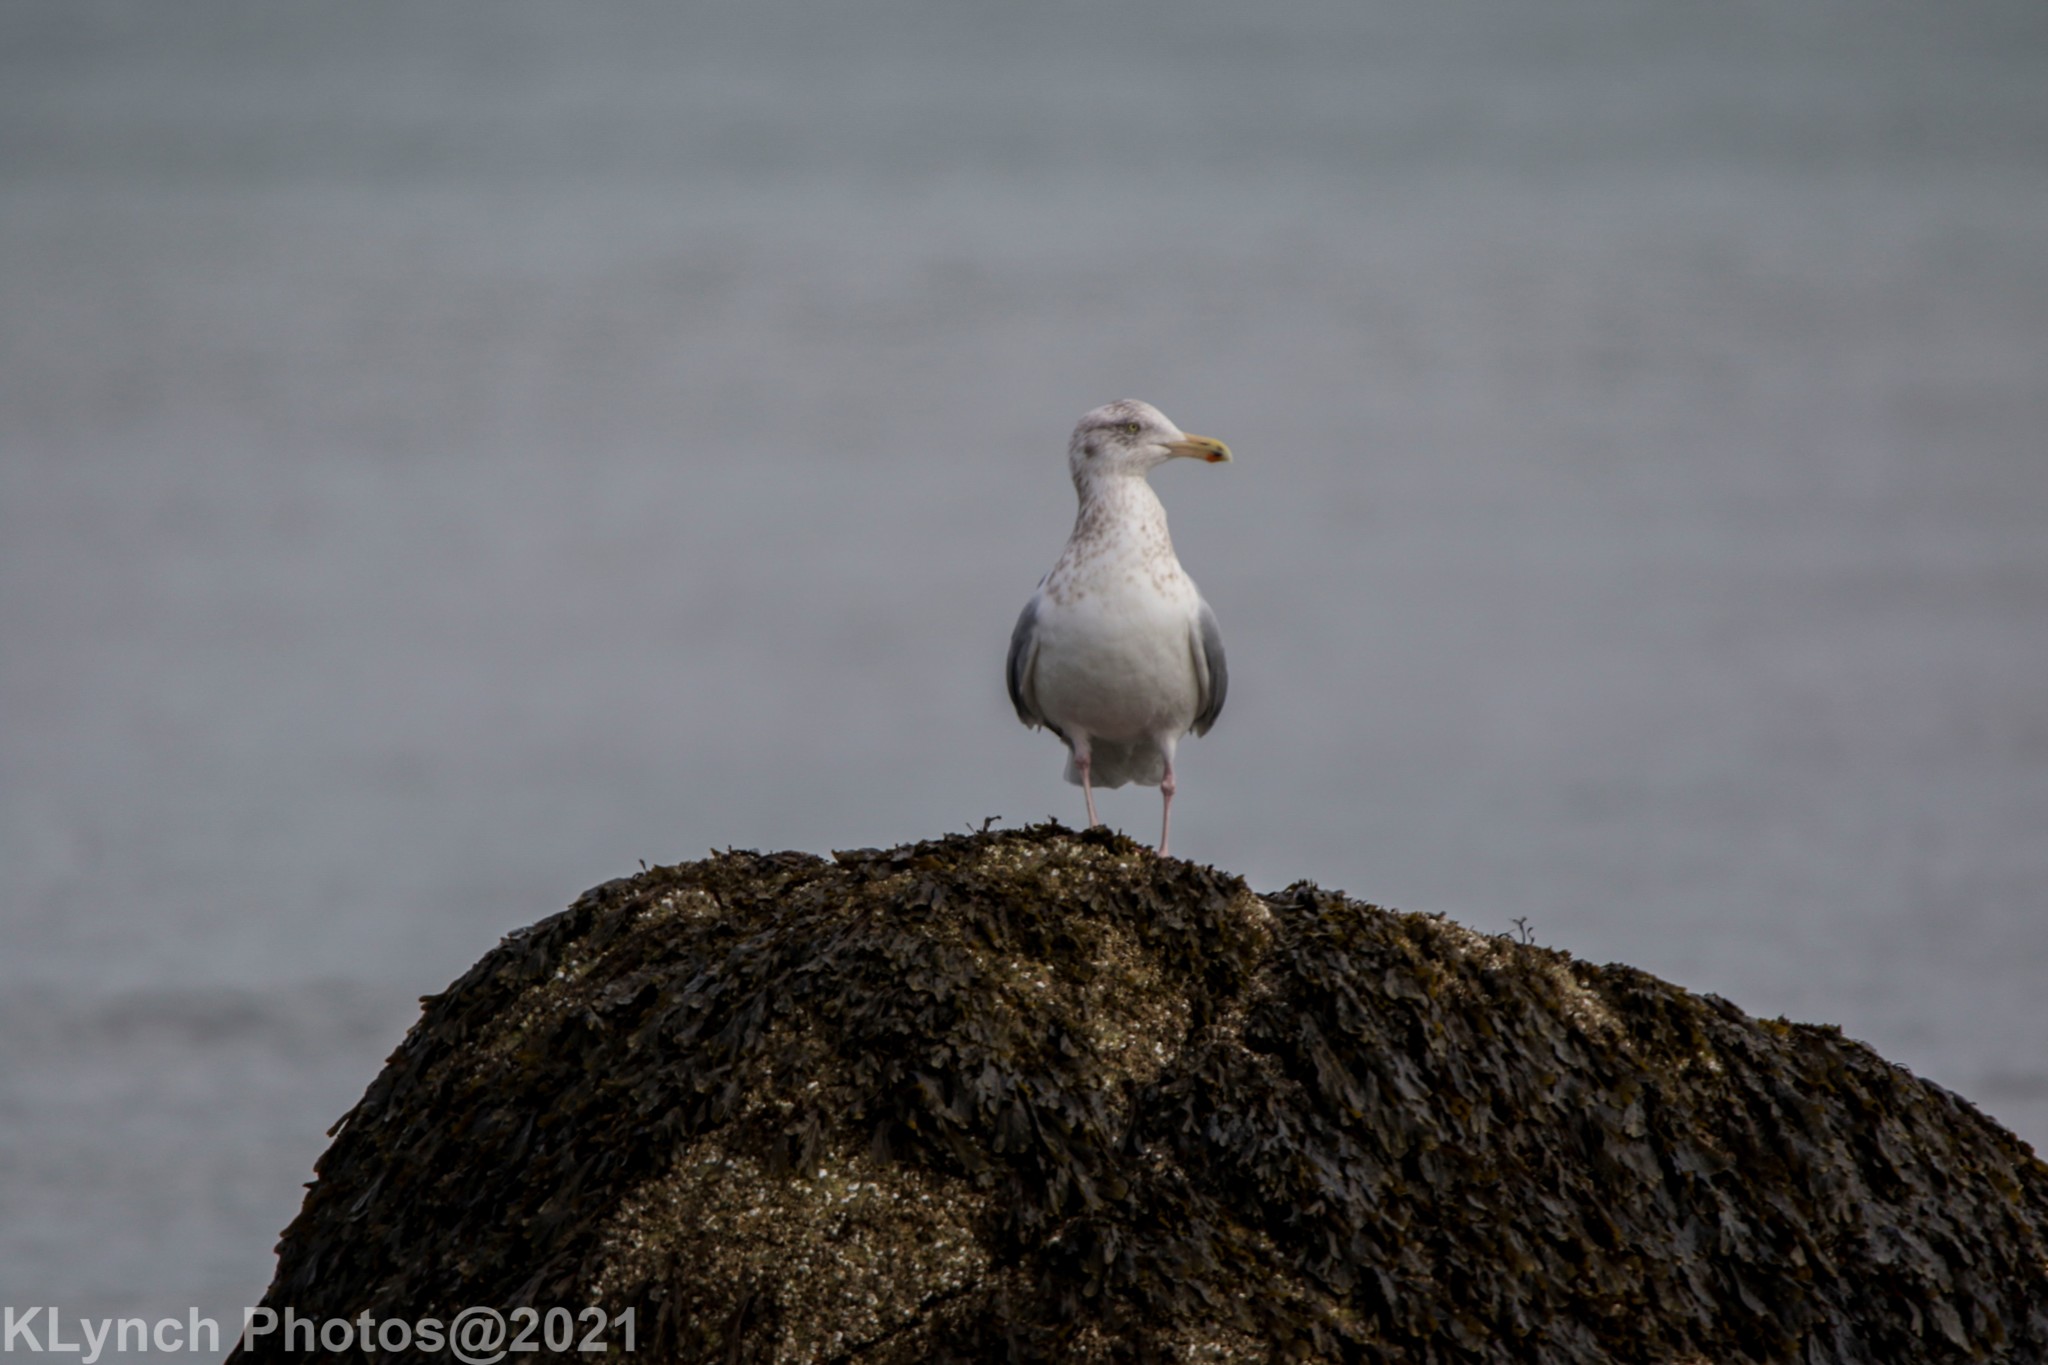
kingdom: Animalia
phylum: Chordata
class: Aves
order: Charadriiformes
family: Laridae
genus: Larus
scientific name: Larus argentatus
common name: Herring gull
